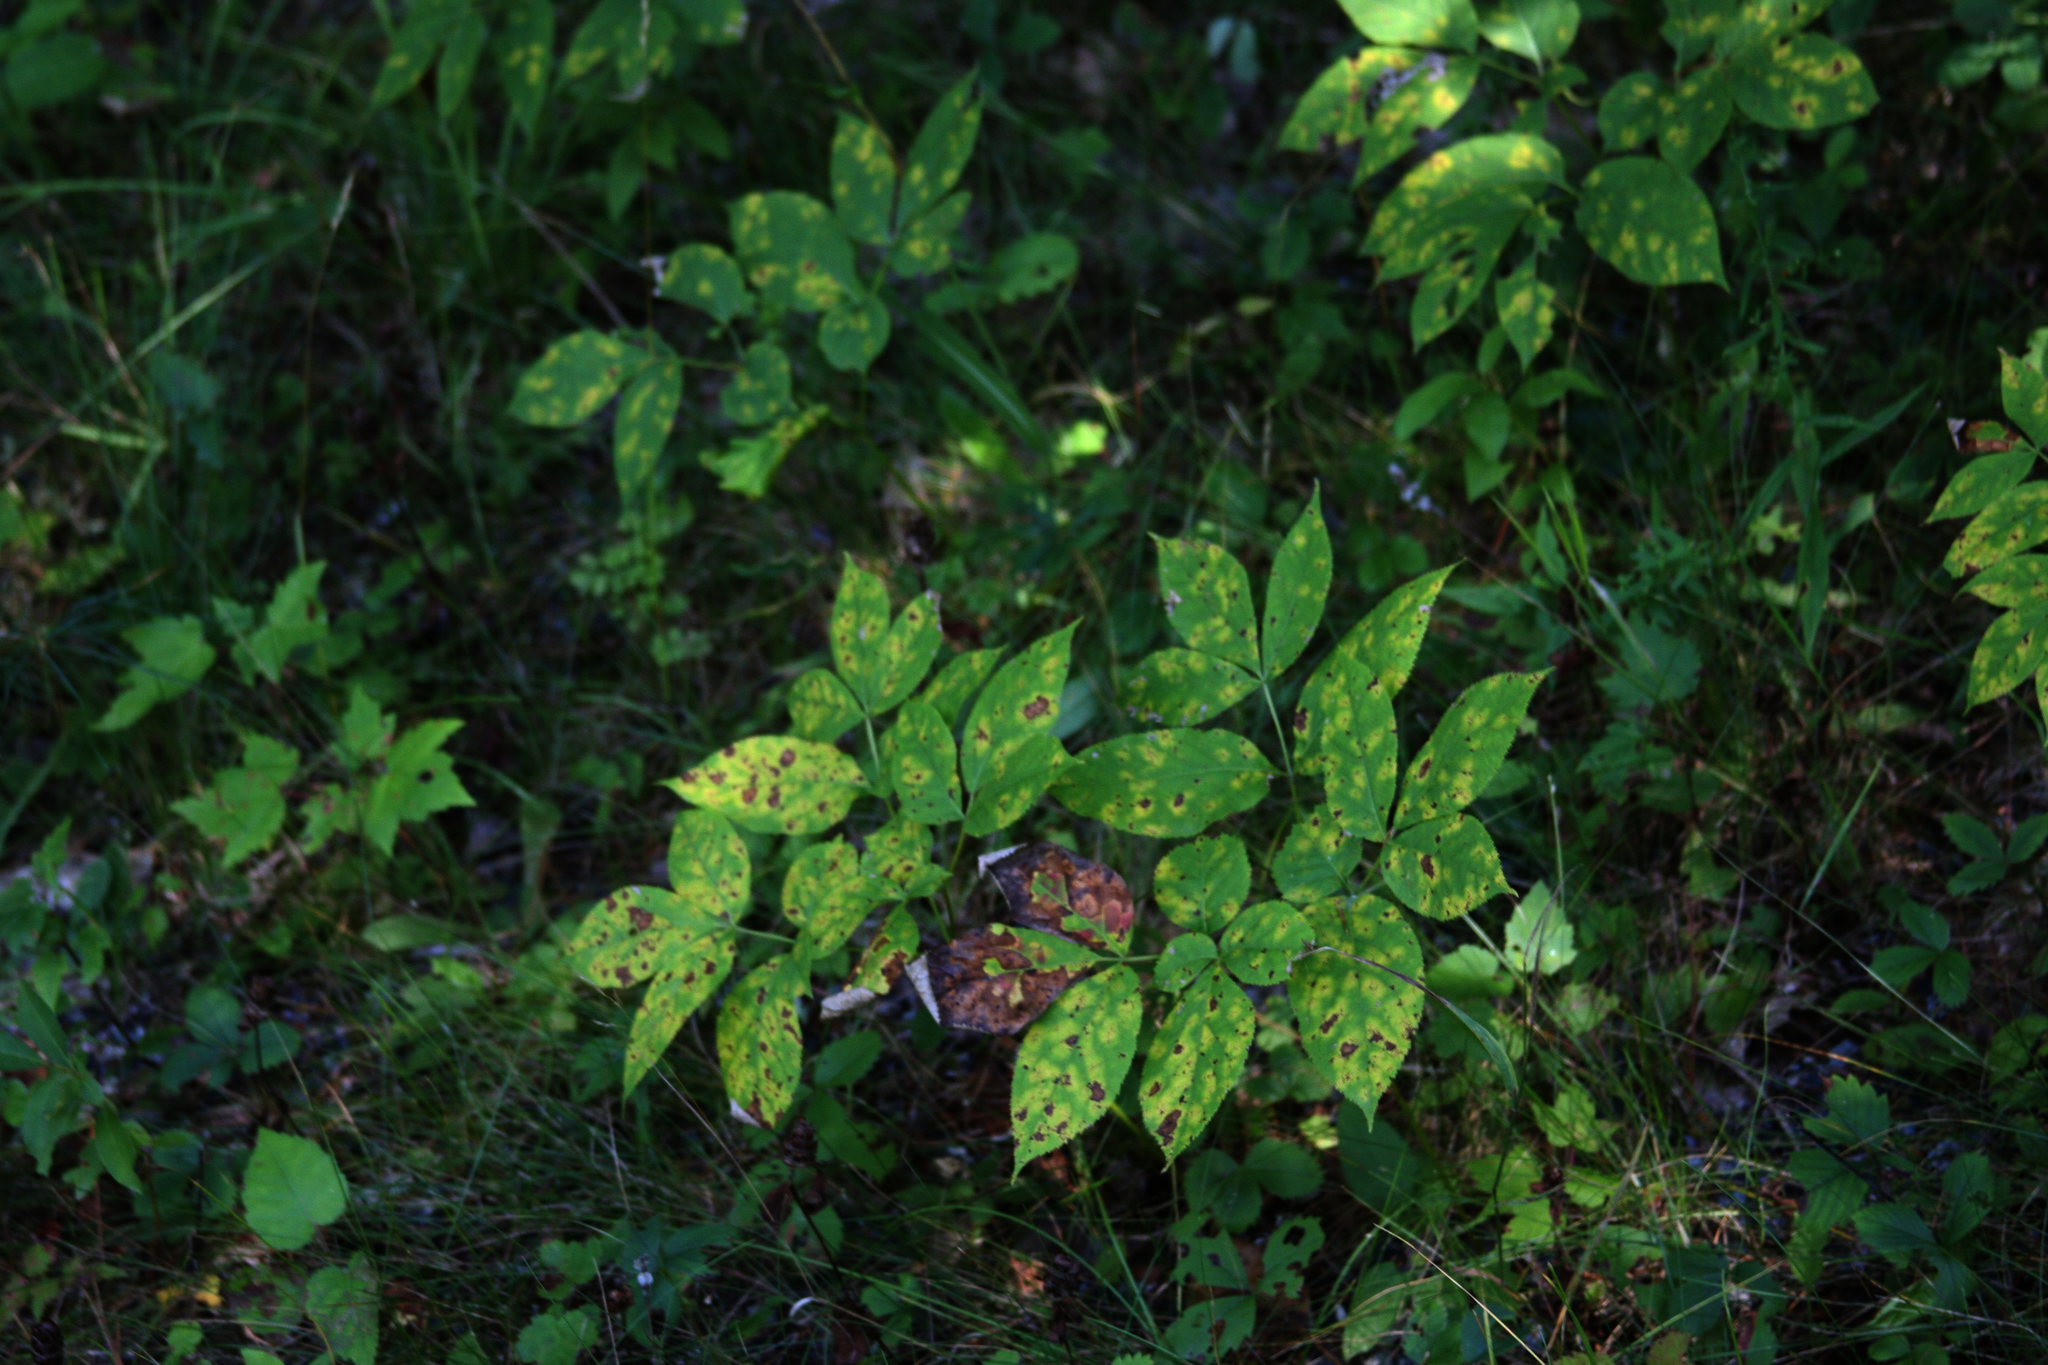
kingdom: Plantae
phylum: Tracheophyta
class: Magnoliopsida
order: Apiales
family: Araliaceae
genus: Aralia
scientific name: Aralia nudicaulis
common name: Wild sarsaparilla
